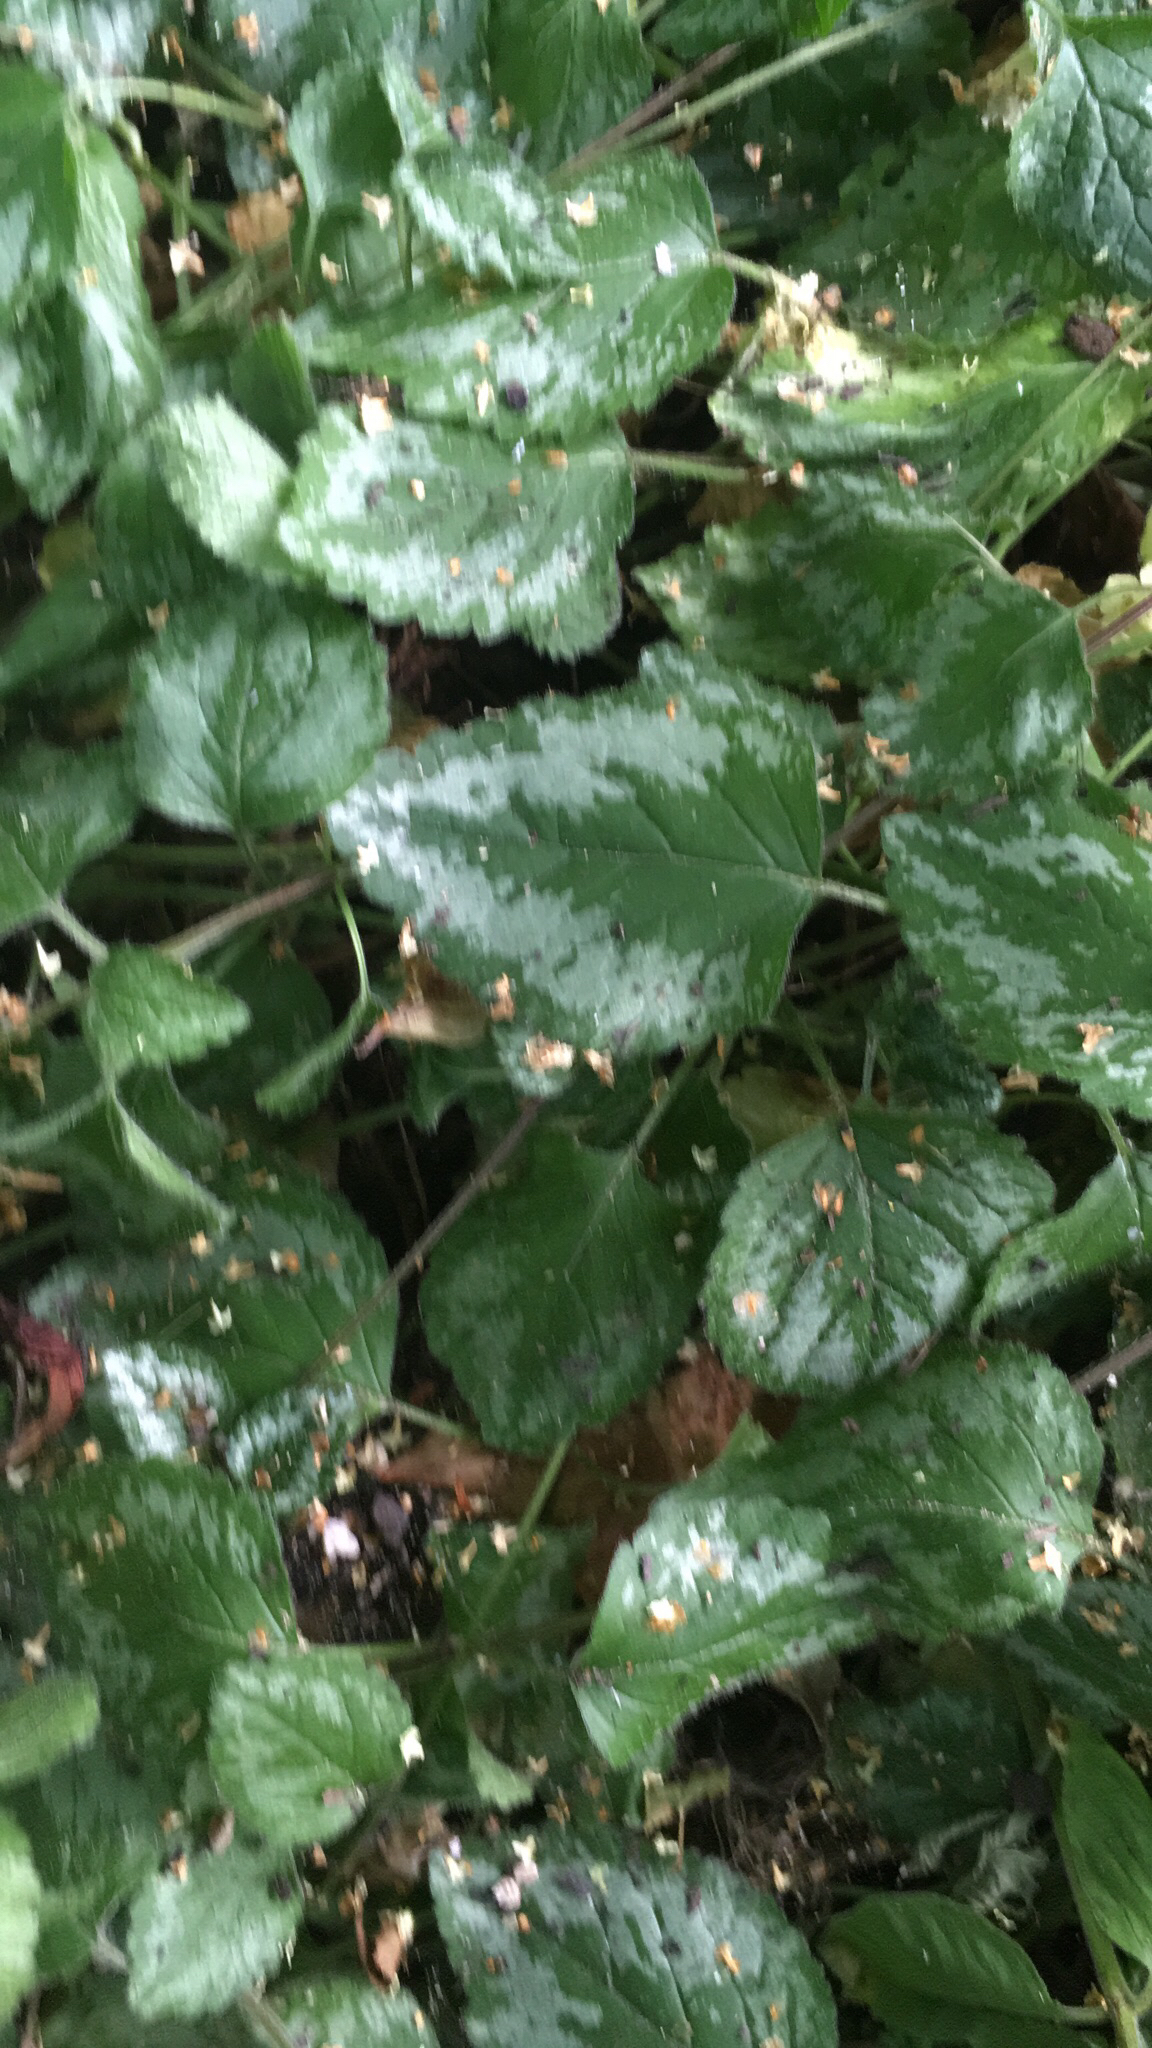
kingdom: Plantae
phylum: Tracheophyta
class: Magnoliopsida
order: Lamiales
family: Lamiaceae
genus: Lamium
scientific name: Lamium galeobdolon
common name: Yellow archangel
